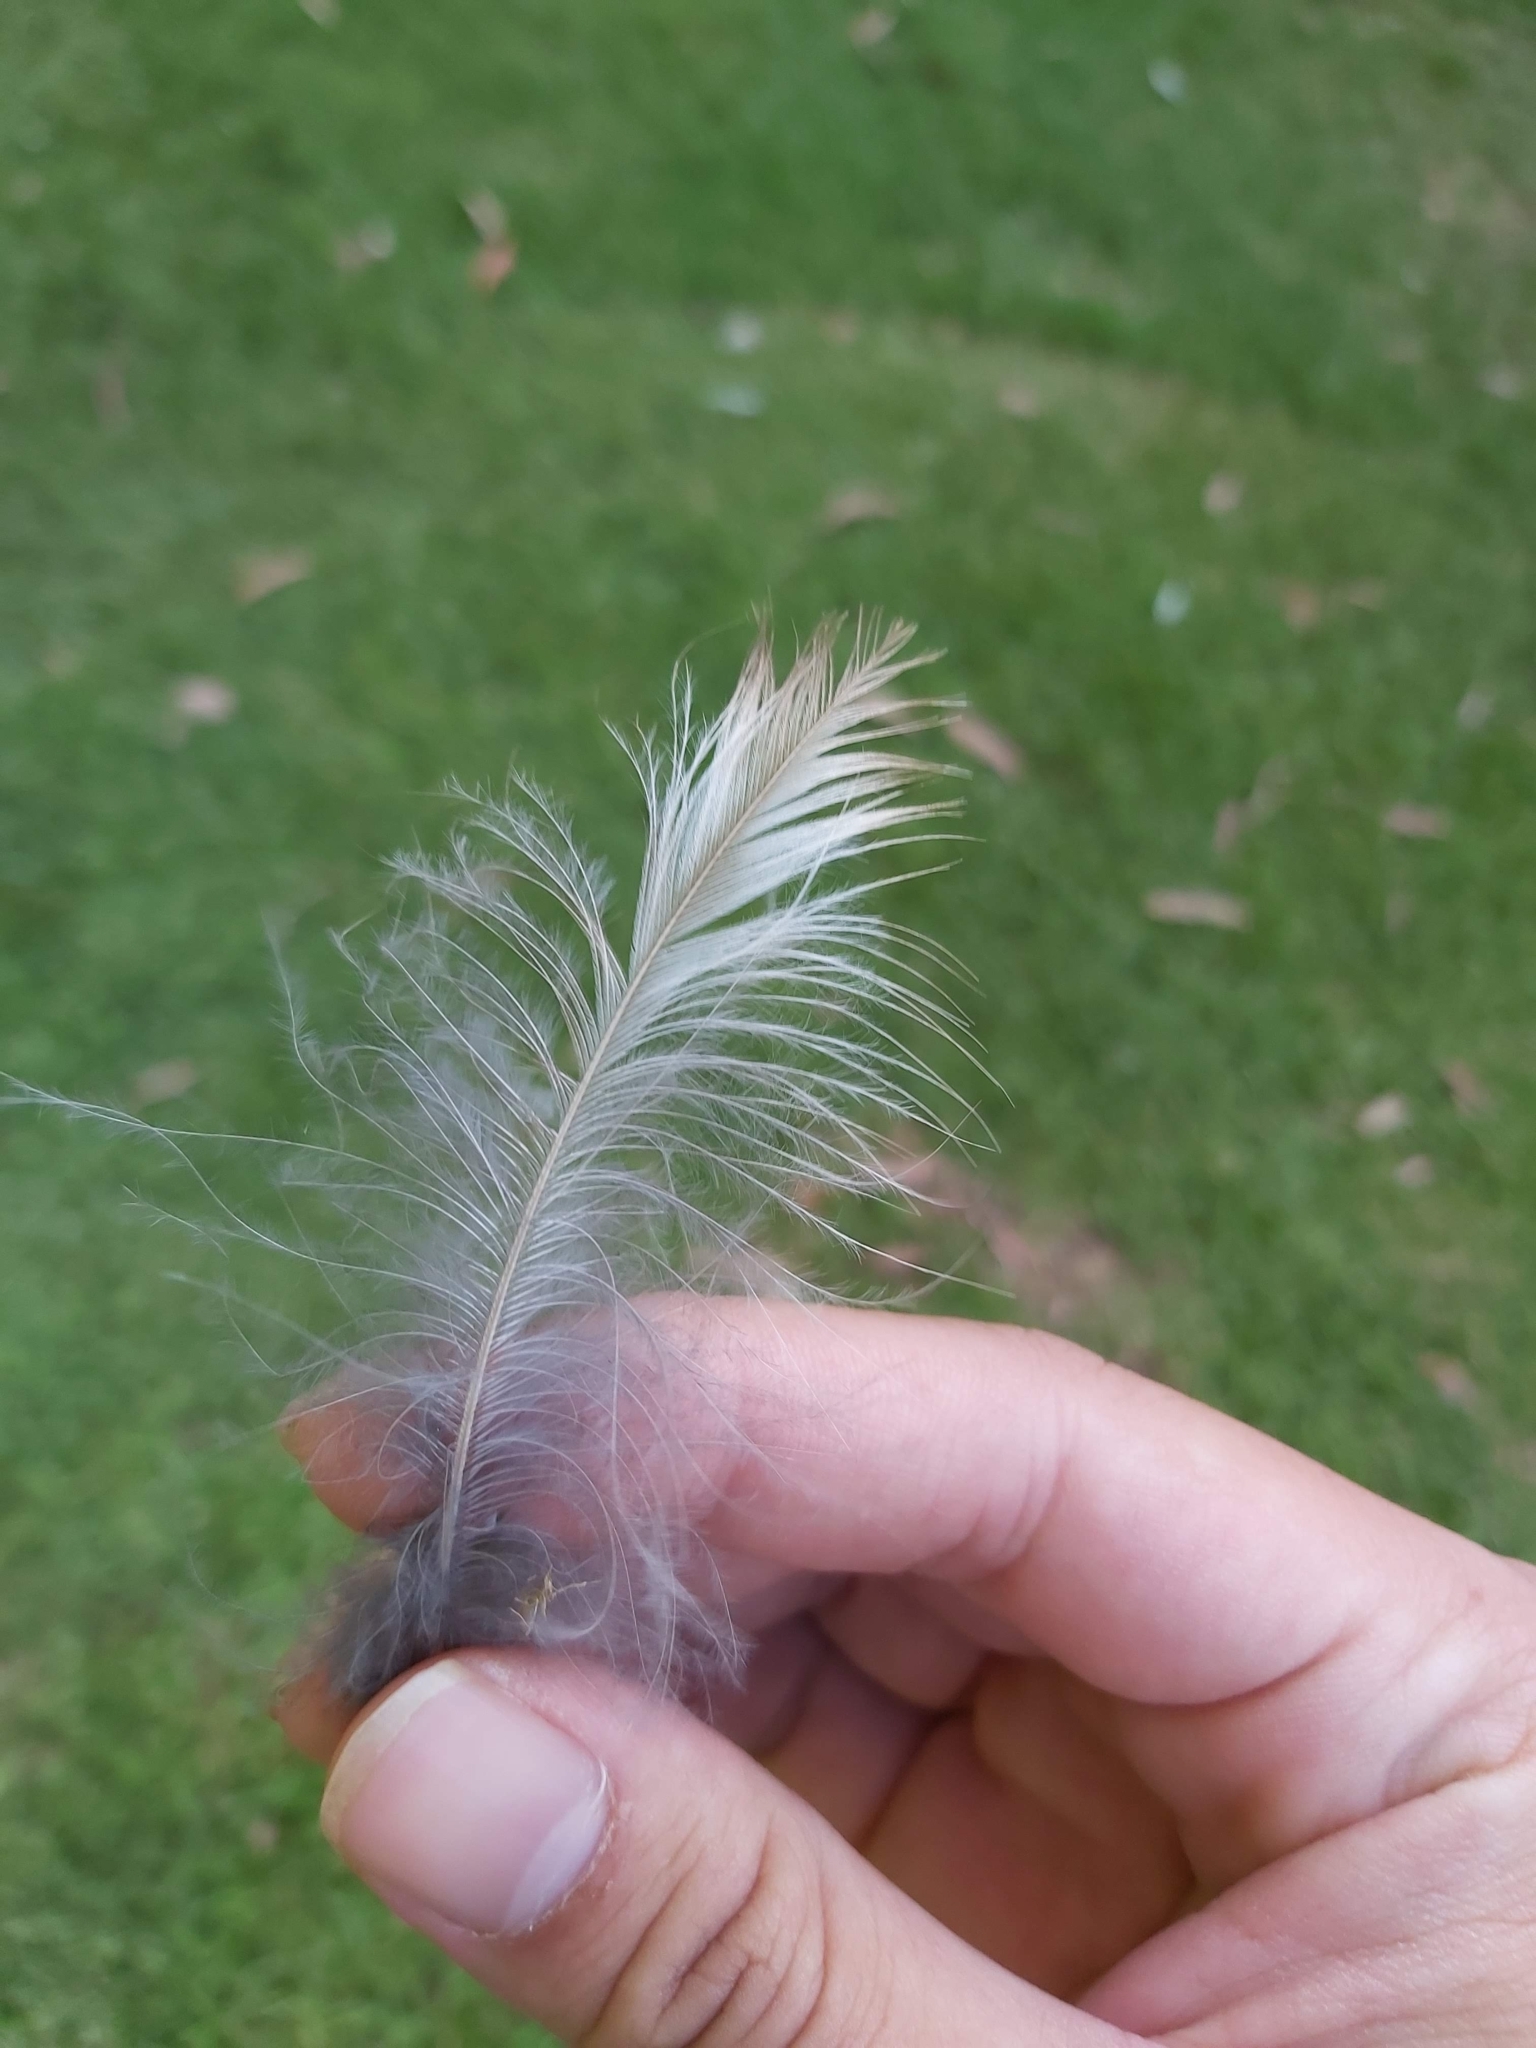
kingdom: Animalia
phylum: Chordata
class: Aves
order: Coraciiformes
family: Alcedinidae
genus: Dacelo
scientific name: Dacelo novaeguineae
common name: Laughing kookaburra
